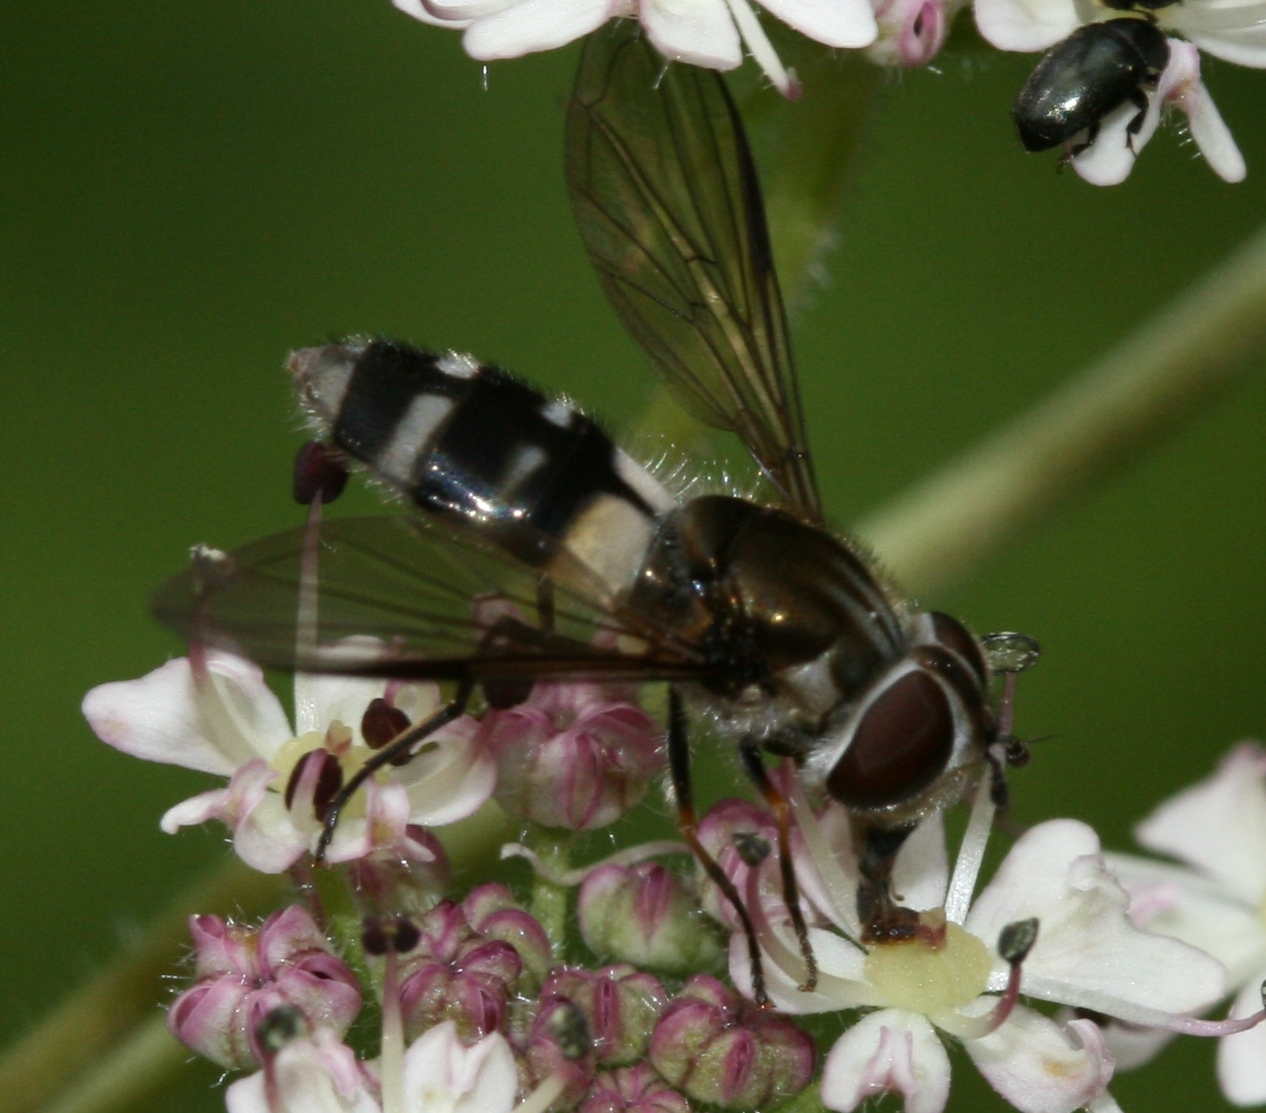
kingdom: Animalia
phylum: Arthropoda
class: Insecta
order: Diptera
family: Syrphidae
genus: Leucozona
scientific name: Leucozona laternaria
